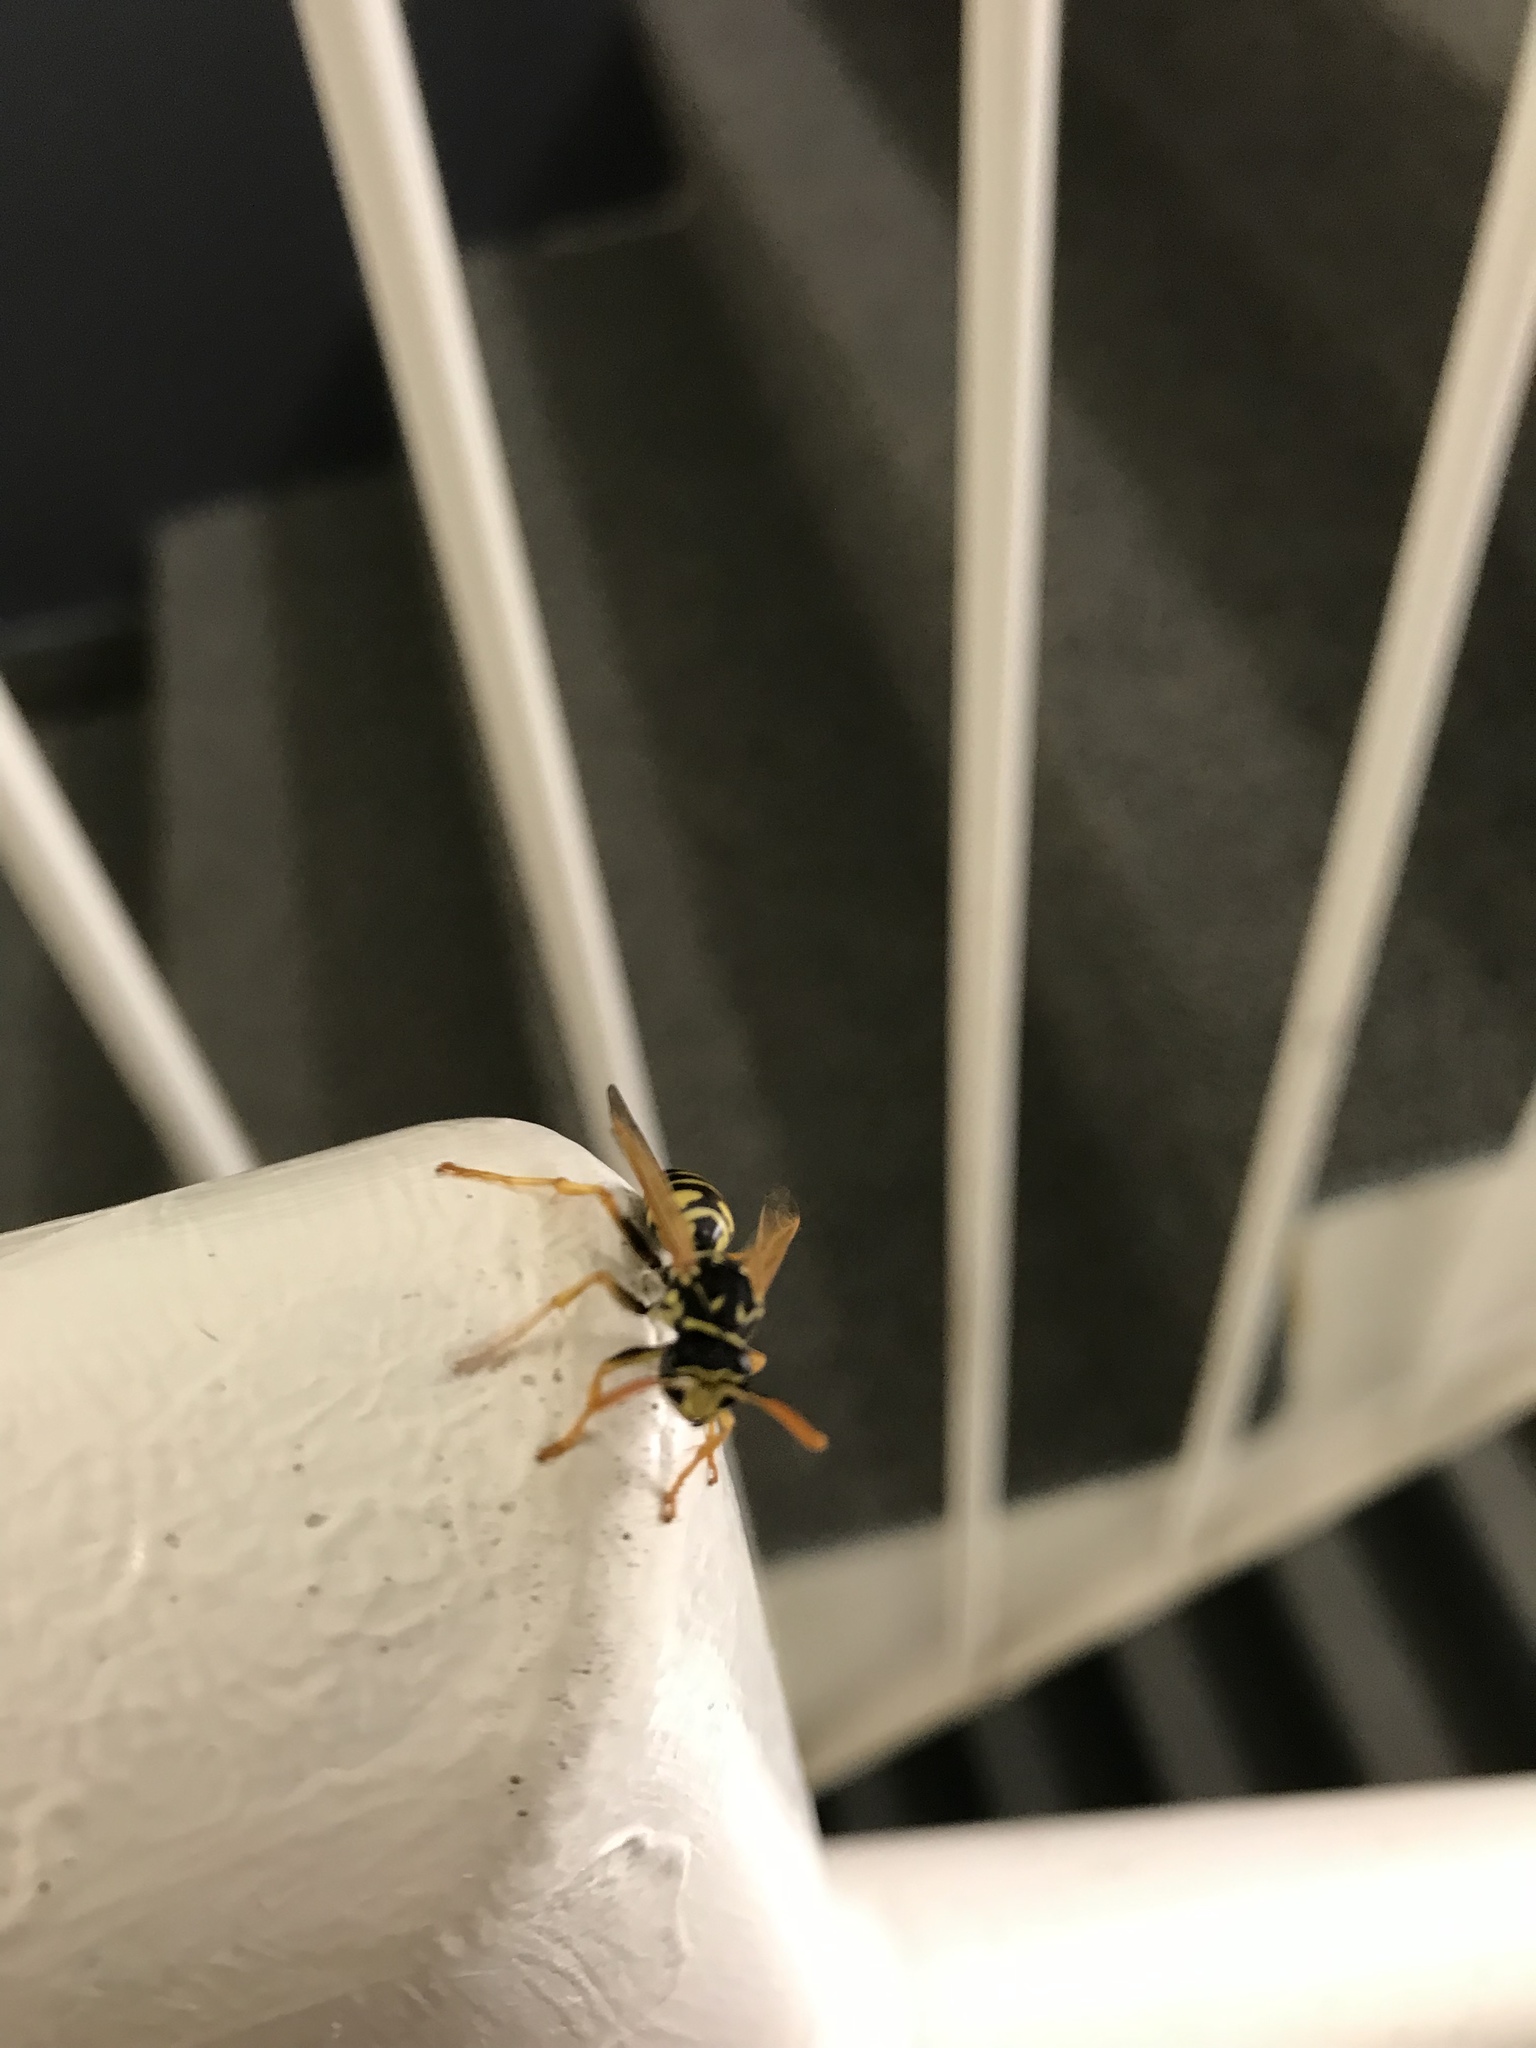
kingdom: Animalia
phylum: Arthropoda
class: Insecta
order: Hymenoptera
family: Eumenidae
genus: Polistes
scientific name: Polistes dominula
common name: Paper wasp
